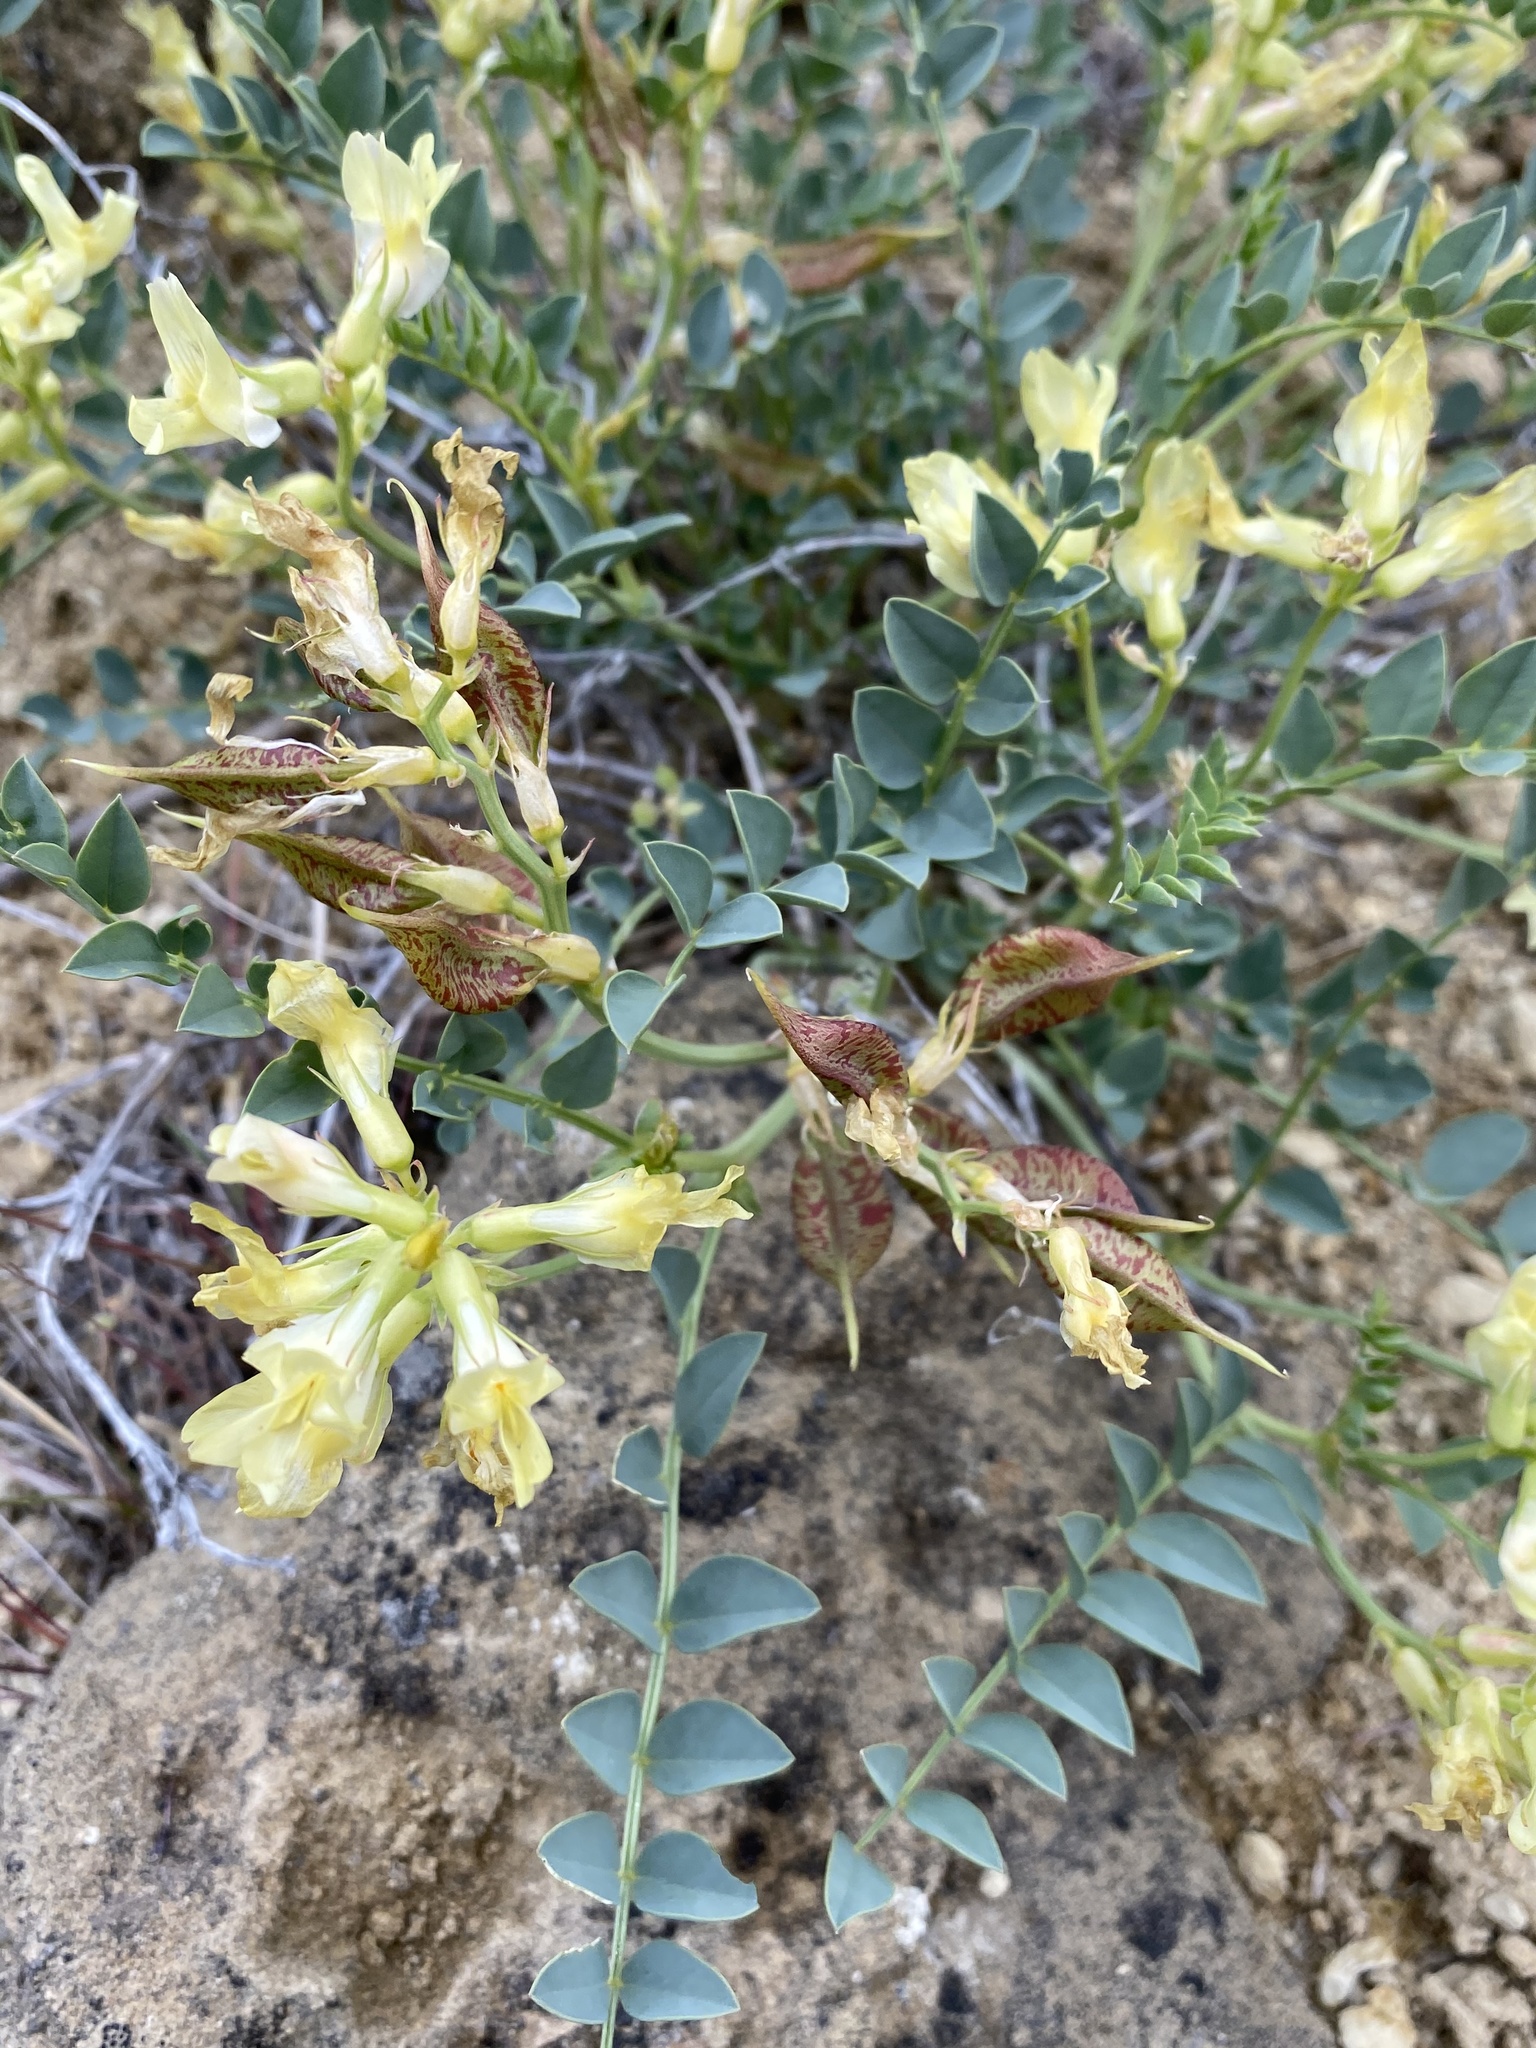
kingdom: Plantae
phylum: Tracheophyta
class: Magnoliopsida
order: Fabales
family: Fabaceae
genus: Astragalus
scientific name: Astragalus beckwithii
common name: Beckwith's milk-vetch
